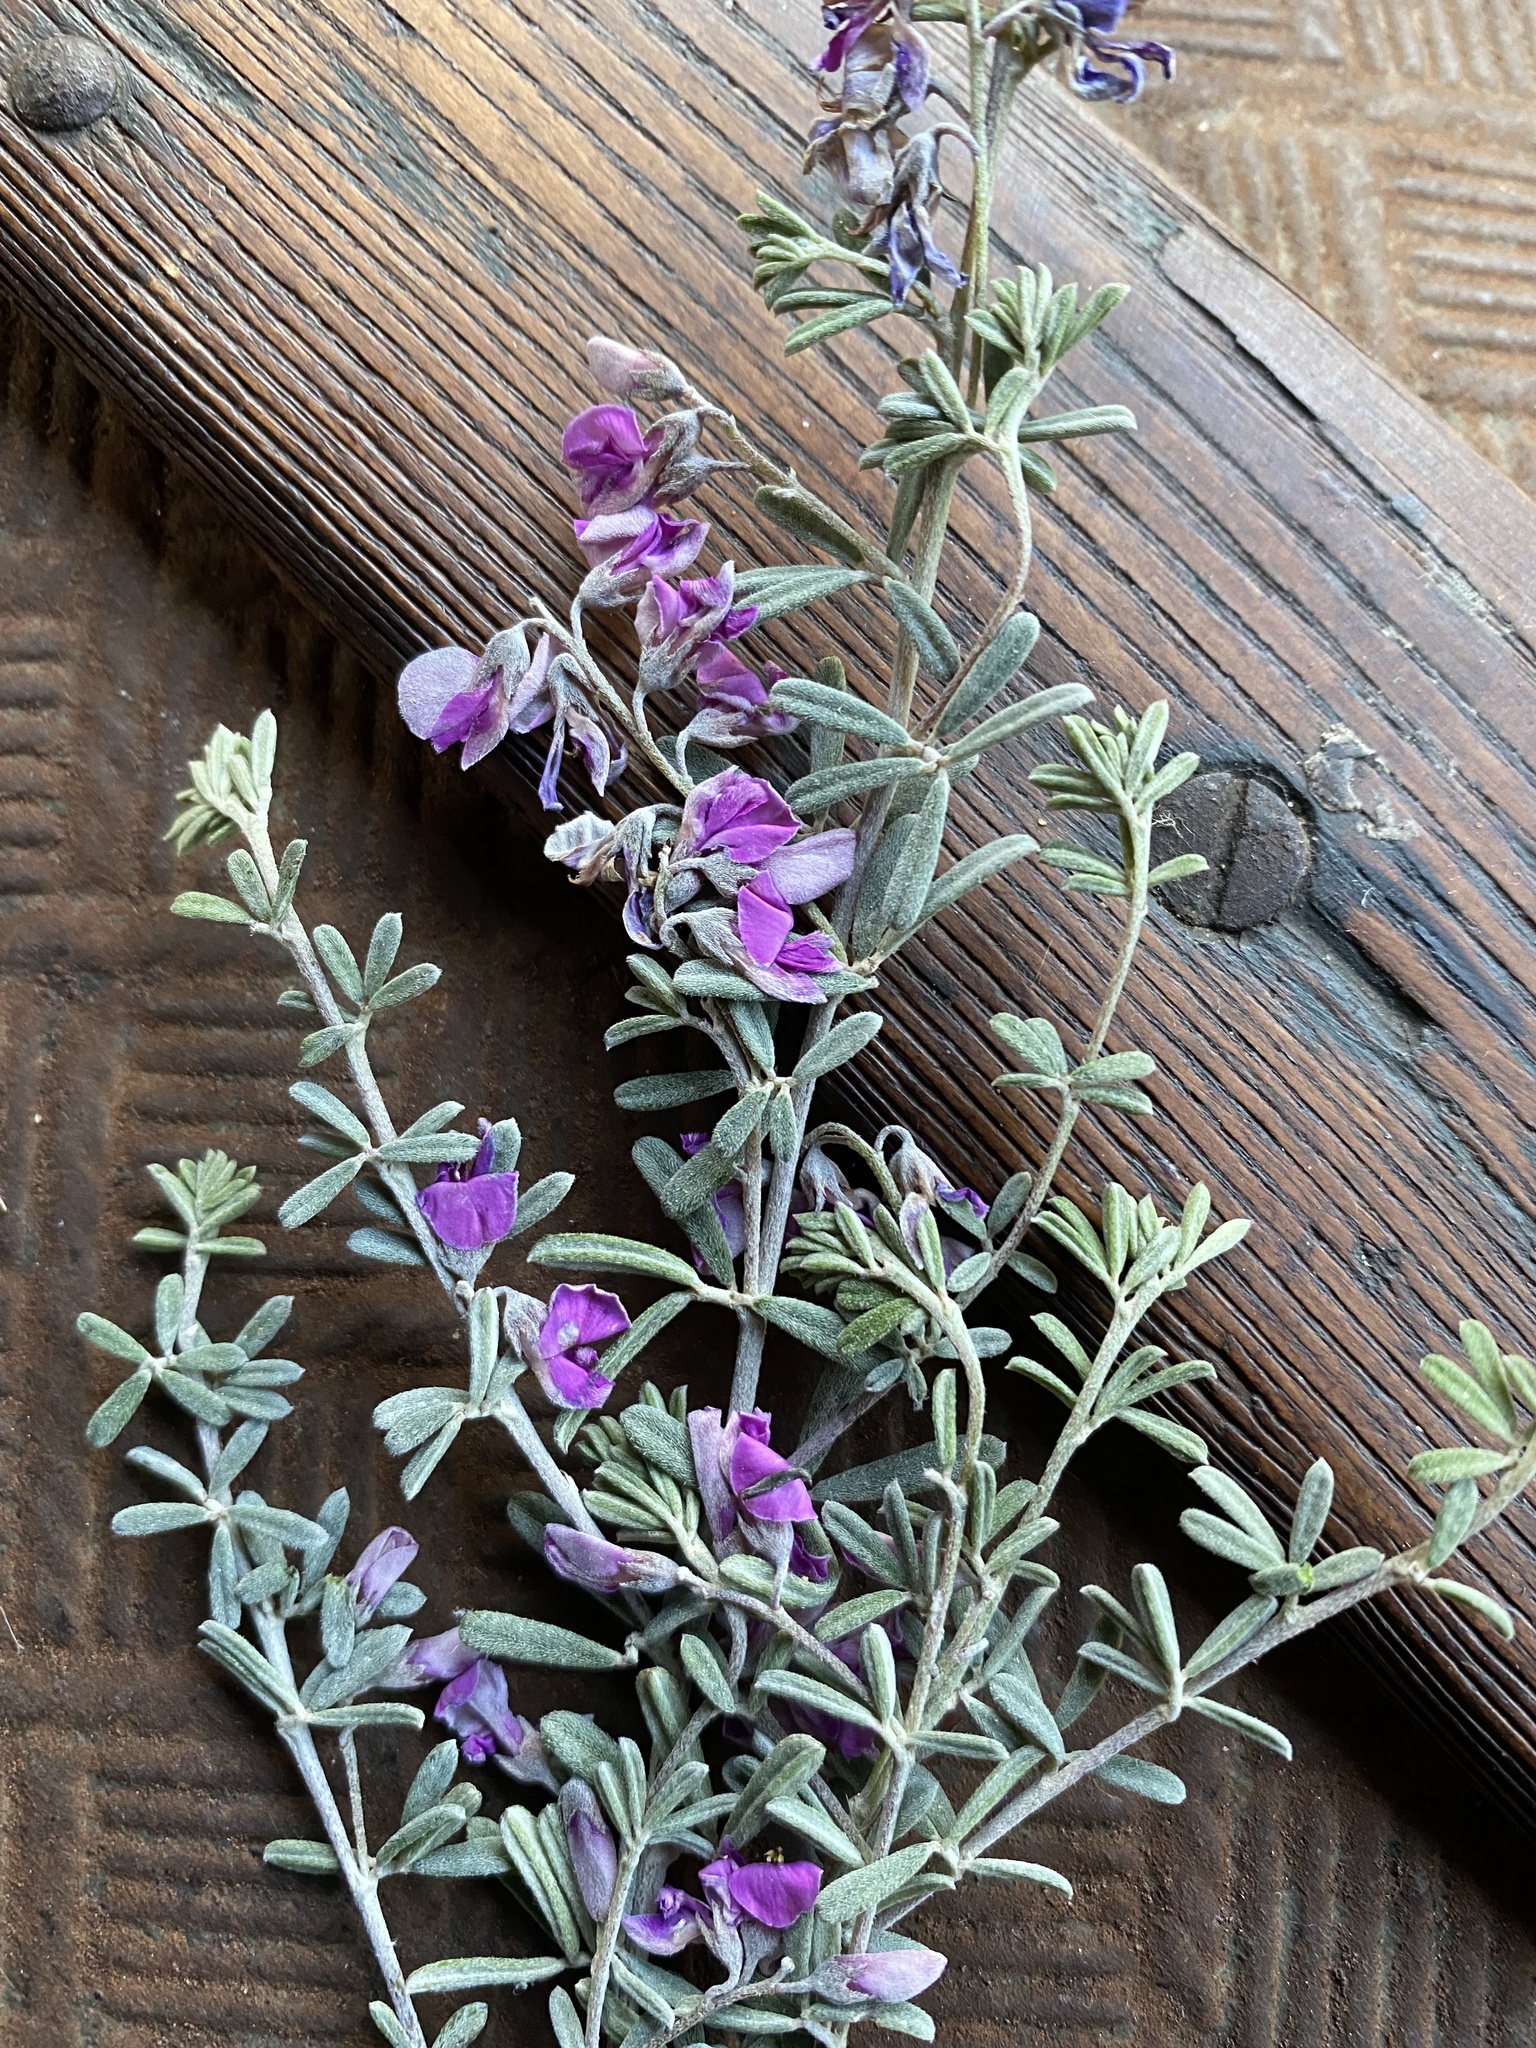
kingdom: Plantae
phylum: Tracheophyta
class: Magnoliopsida
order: Fabales
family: Fabaceae
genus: Indigofera
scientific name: Indigofera
